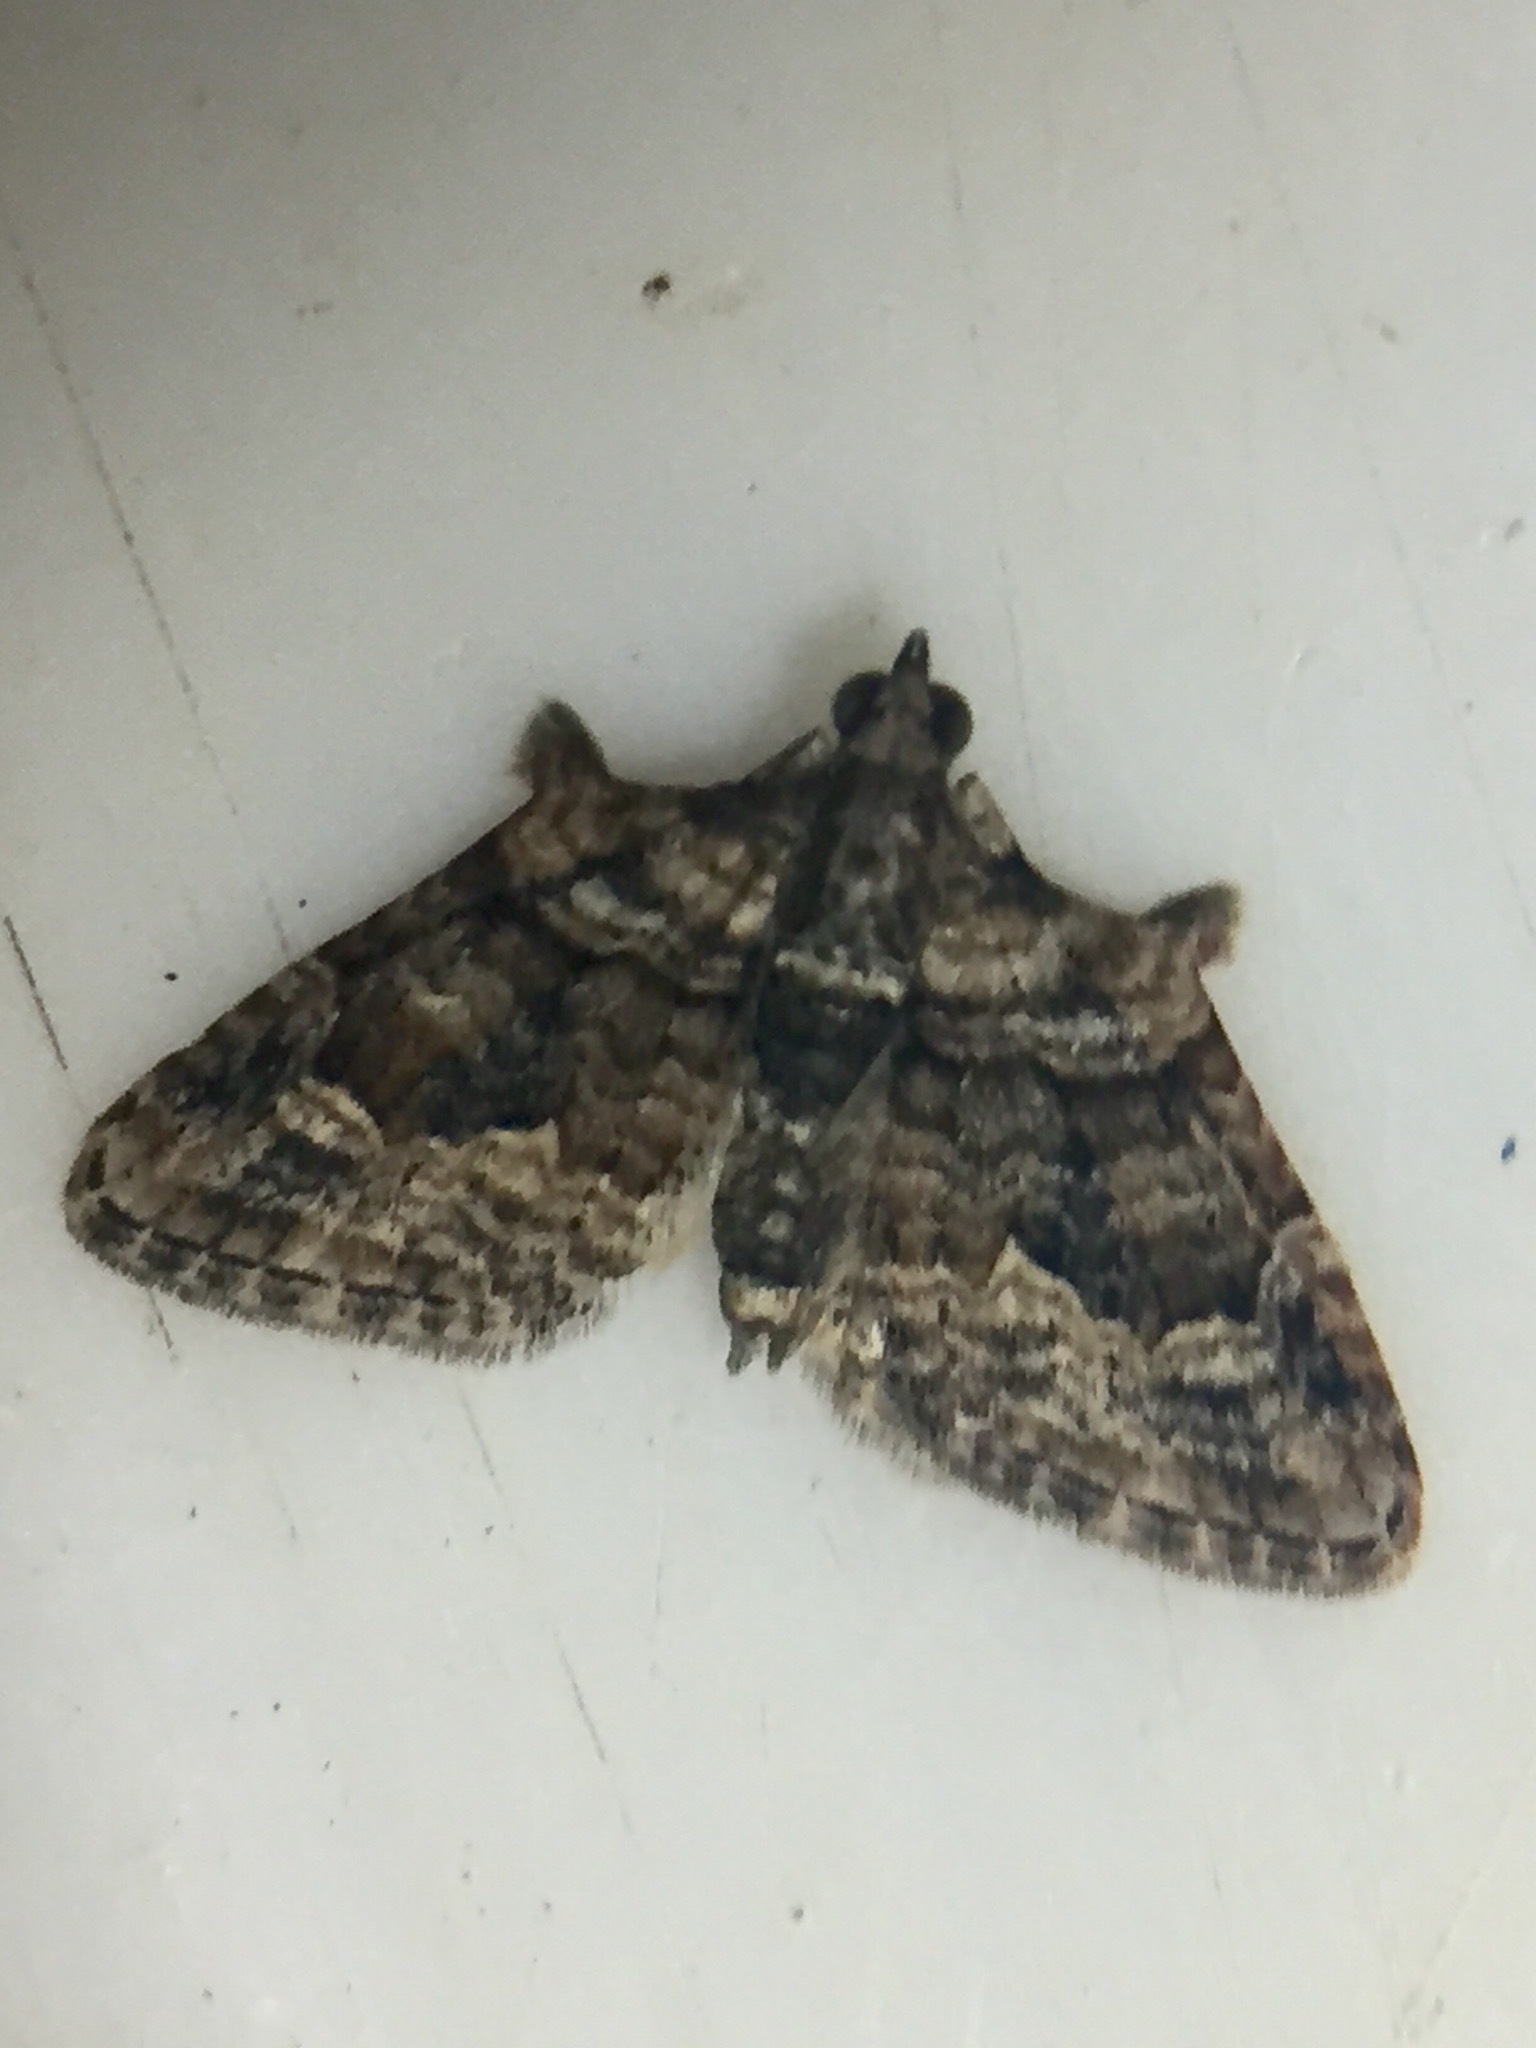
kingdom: Animalia
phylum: Arthropoda
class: Insecta
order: Lepidoptera
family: Geometridae
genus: Phrissogonus
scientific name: Phrissogonus laticostata
